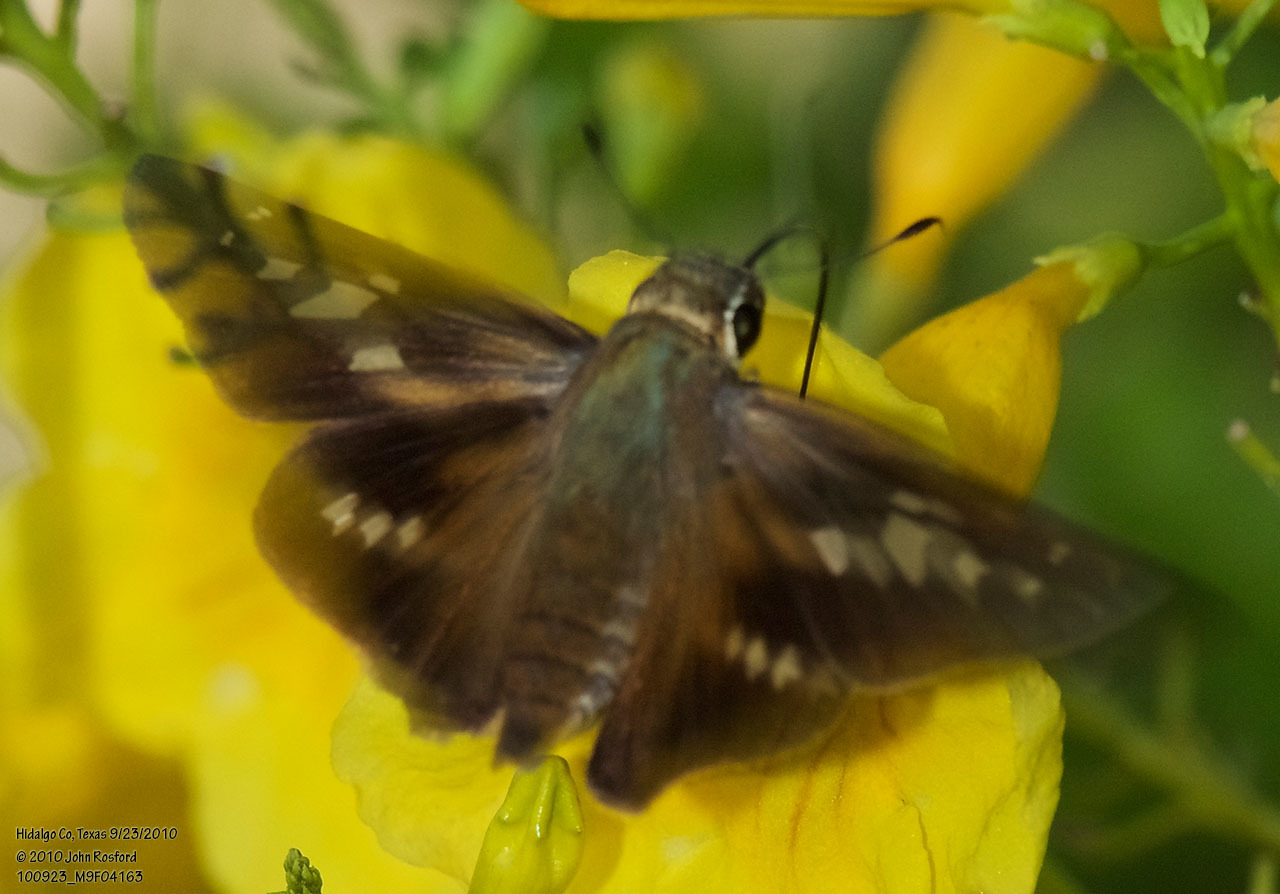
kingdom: Animalia
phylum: Arthropoda
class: Insecta
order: Lepidoptera
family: Hesperiidae
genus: Calpodes
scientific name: Calpodes ethlius
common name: Brazilian skipper
